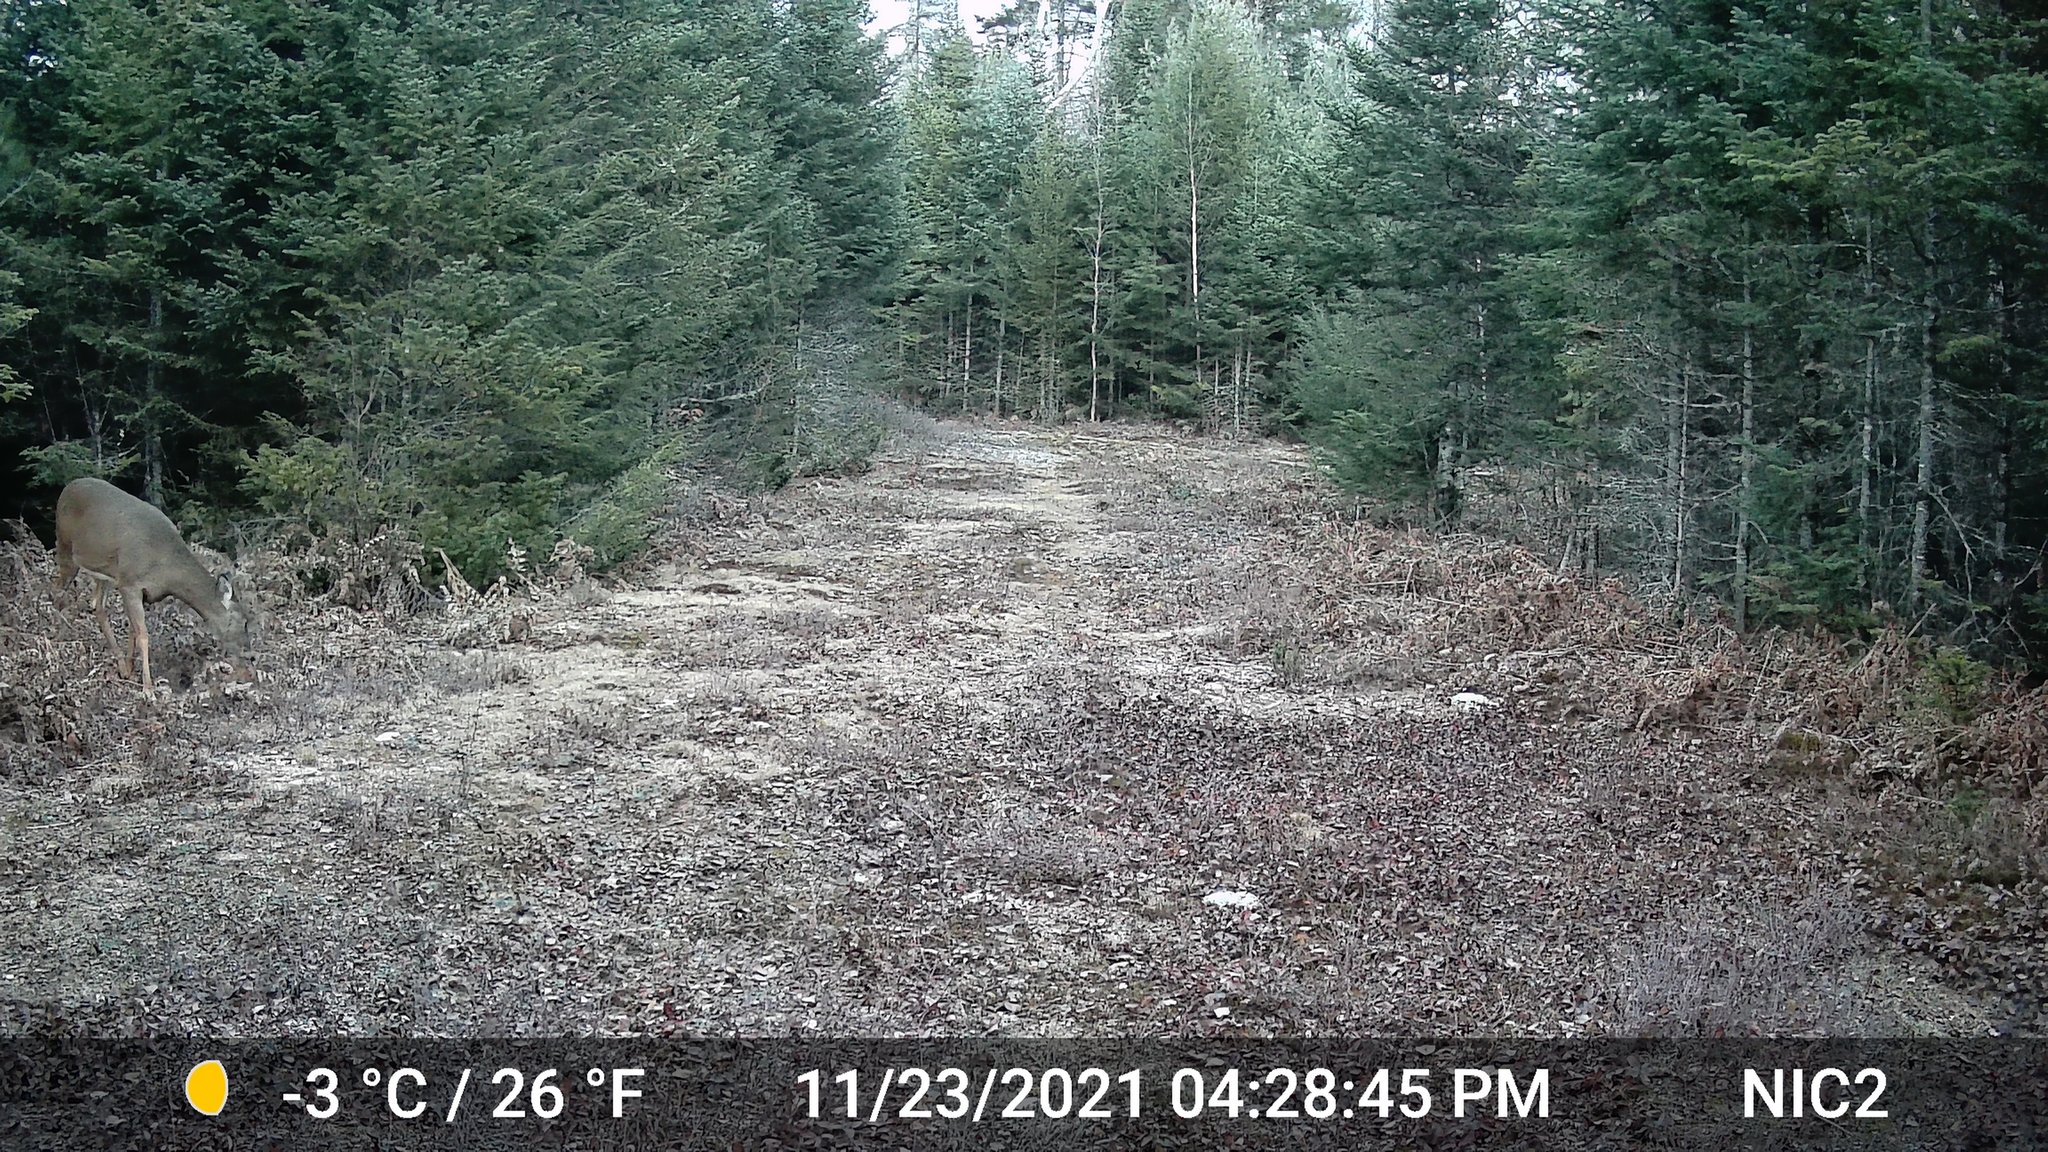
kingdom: Animalia
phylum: Chordata
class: Mammalia
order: Artiodactyla
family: Cervidae
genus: Odocoileus
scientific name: Odocoileus virginianus
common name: White-tailed deer
